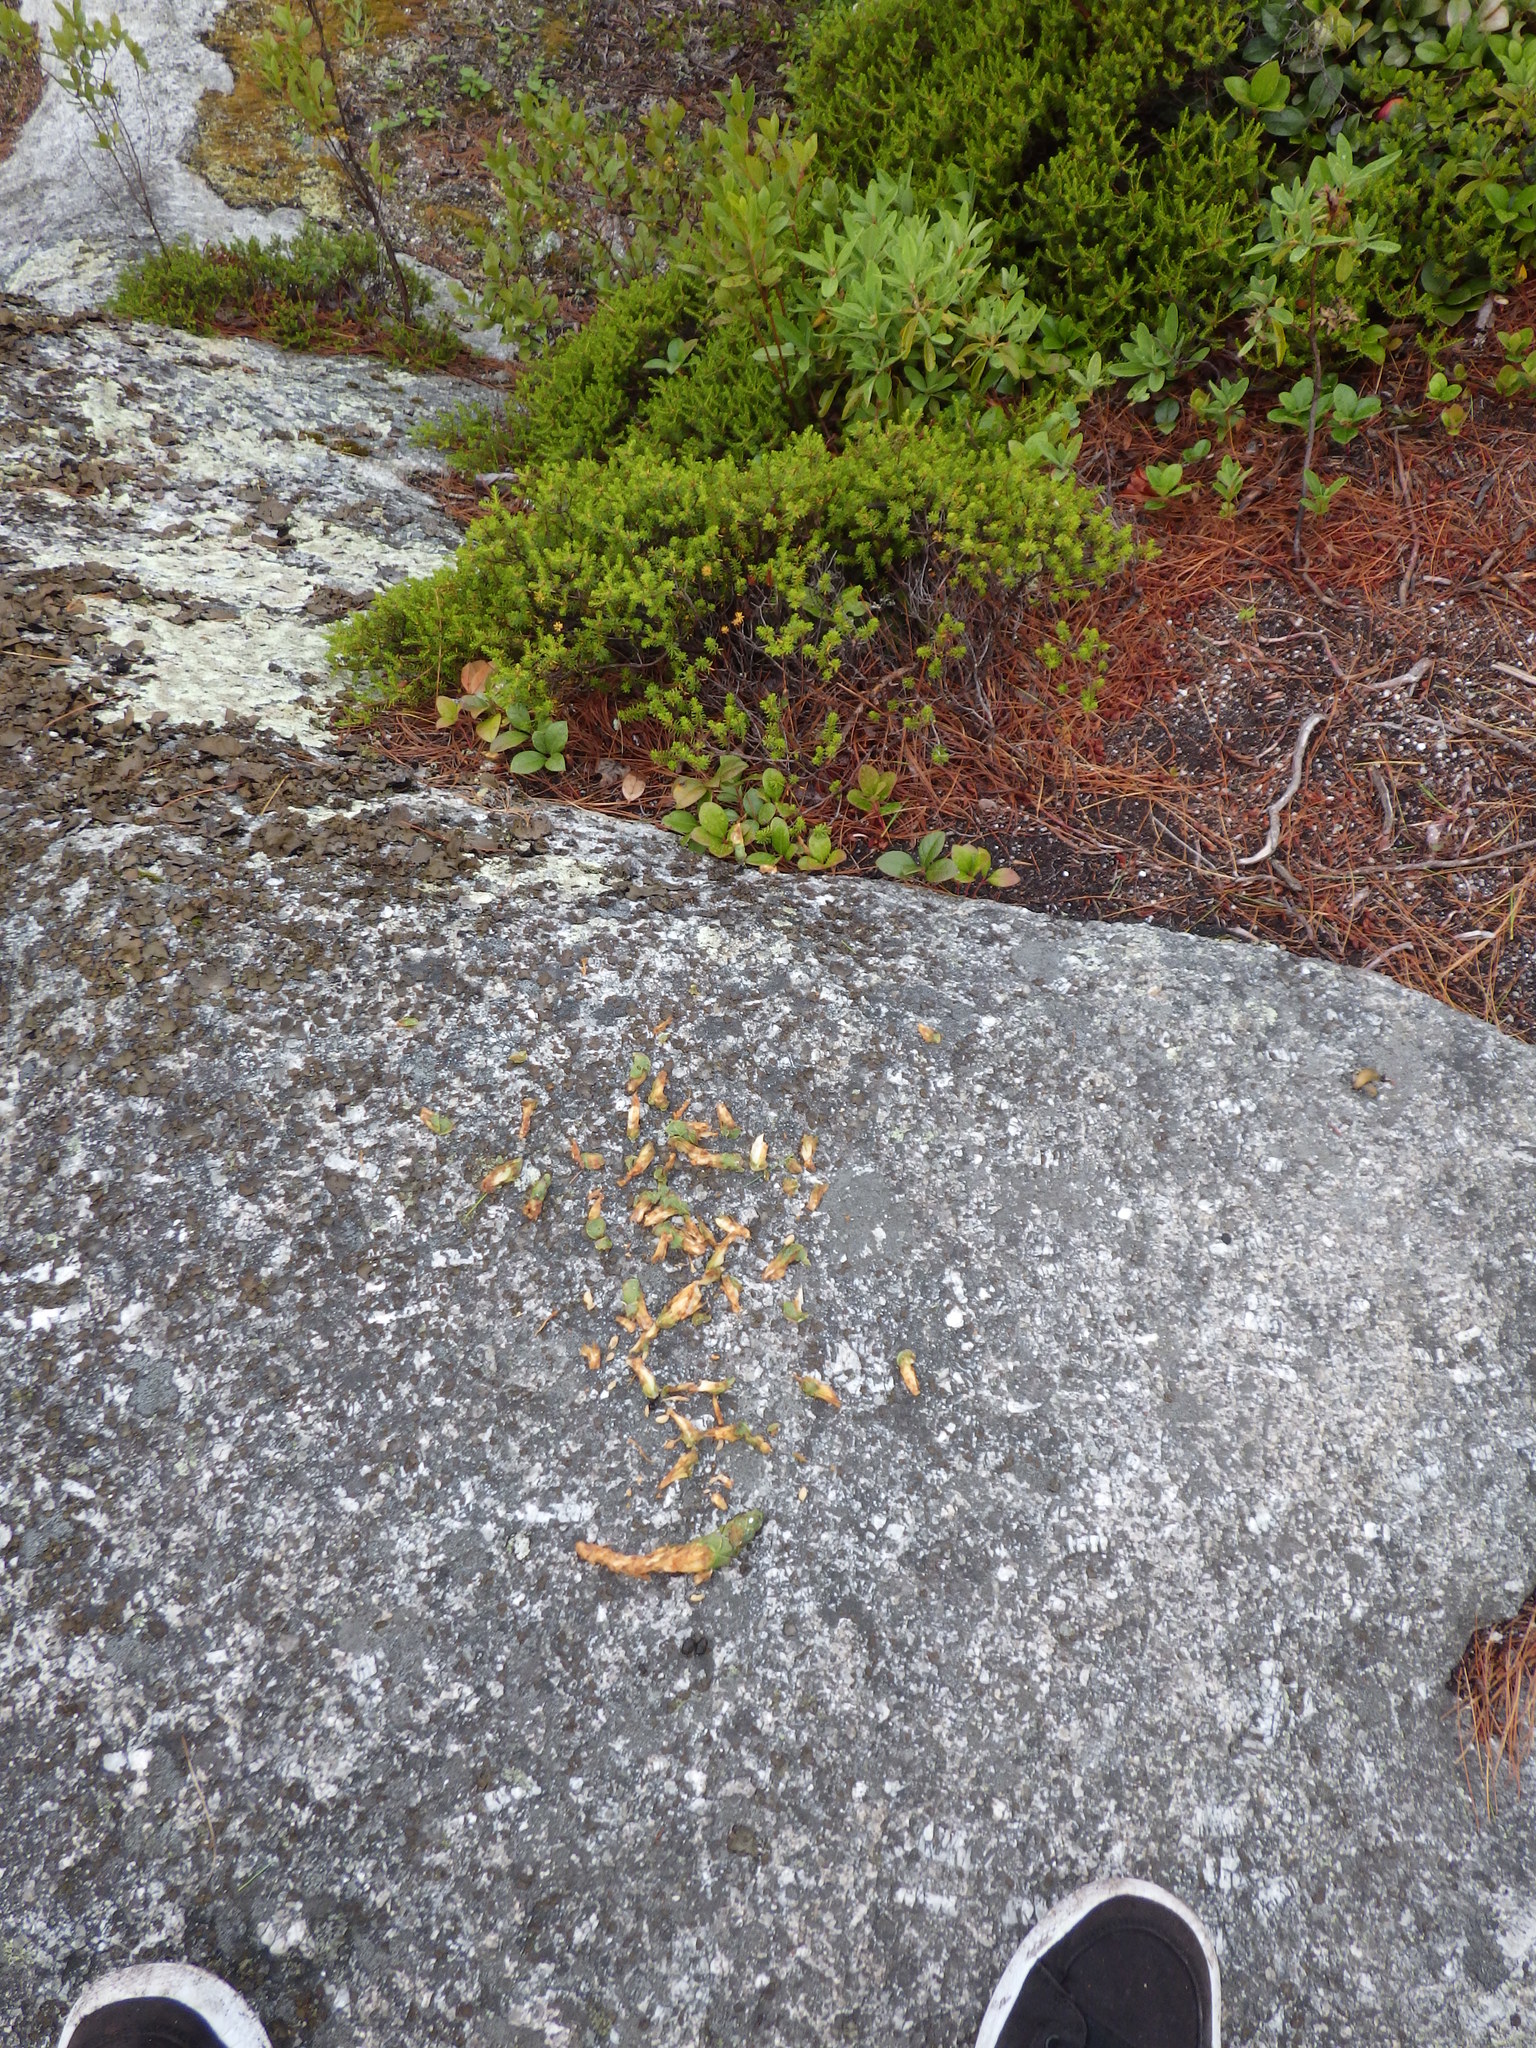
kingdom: Animalia
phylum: Chordata
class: Mammalia
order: Rodentia
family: Sciuridae
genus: Tamiasciurus
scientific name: Tamiasciurus hudsonicus
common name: Red squirrel
